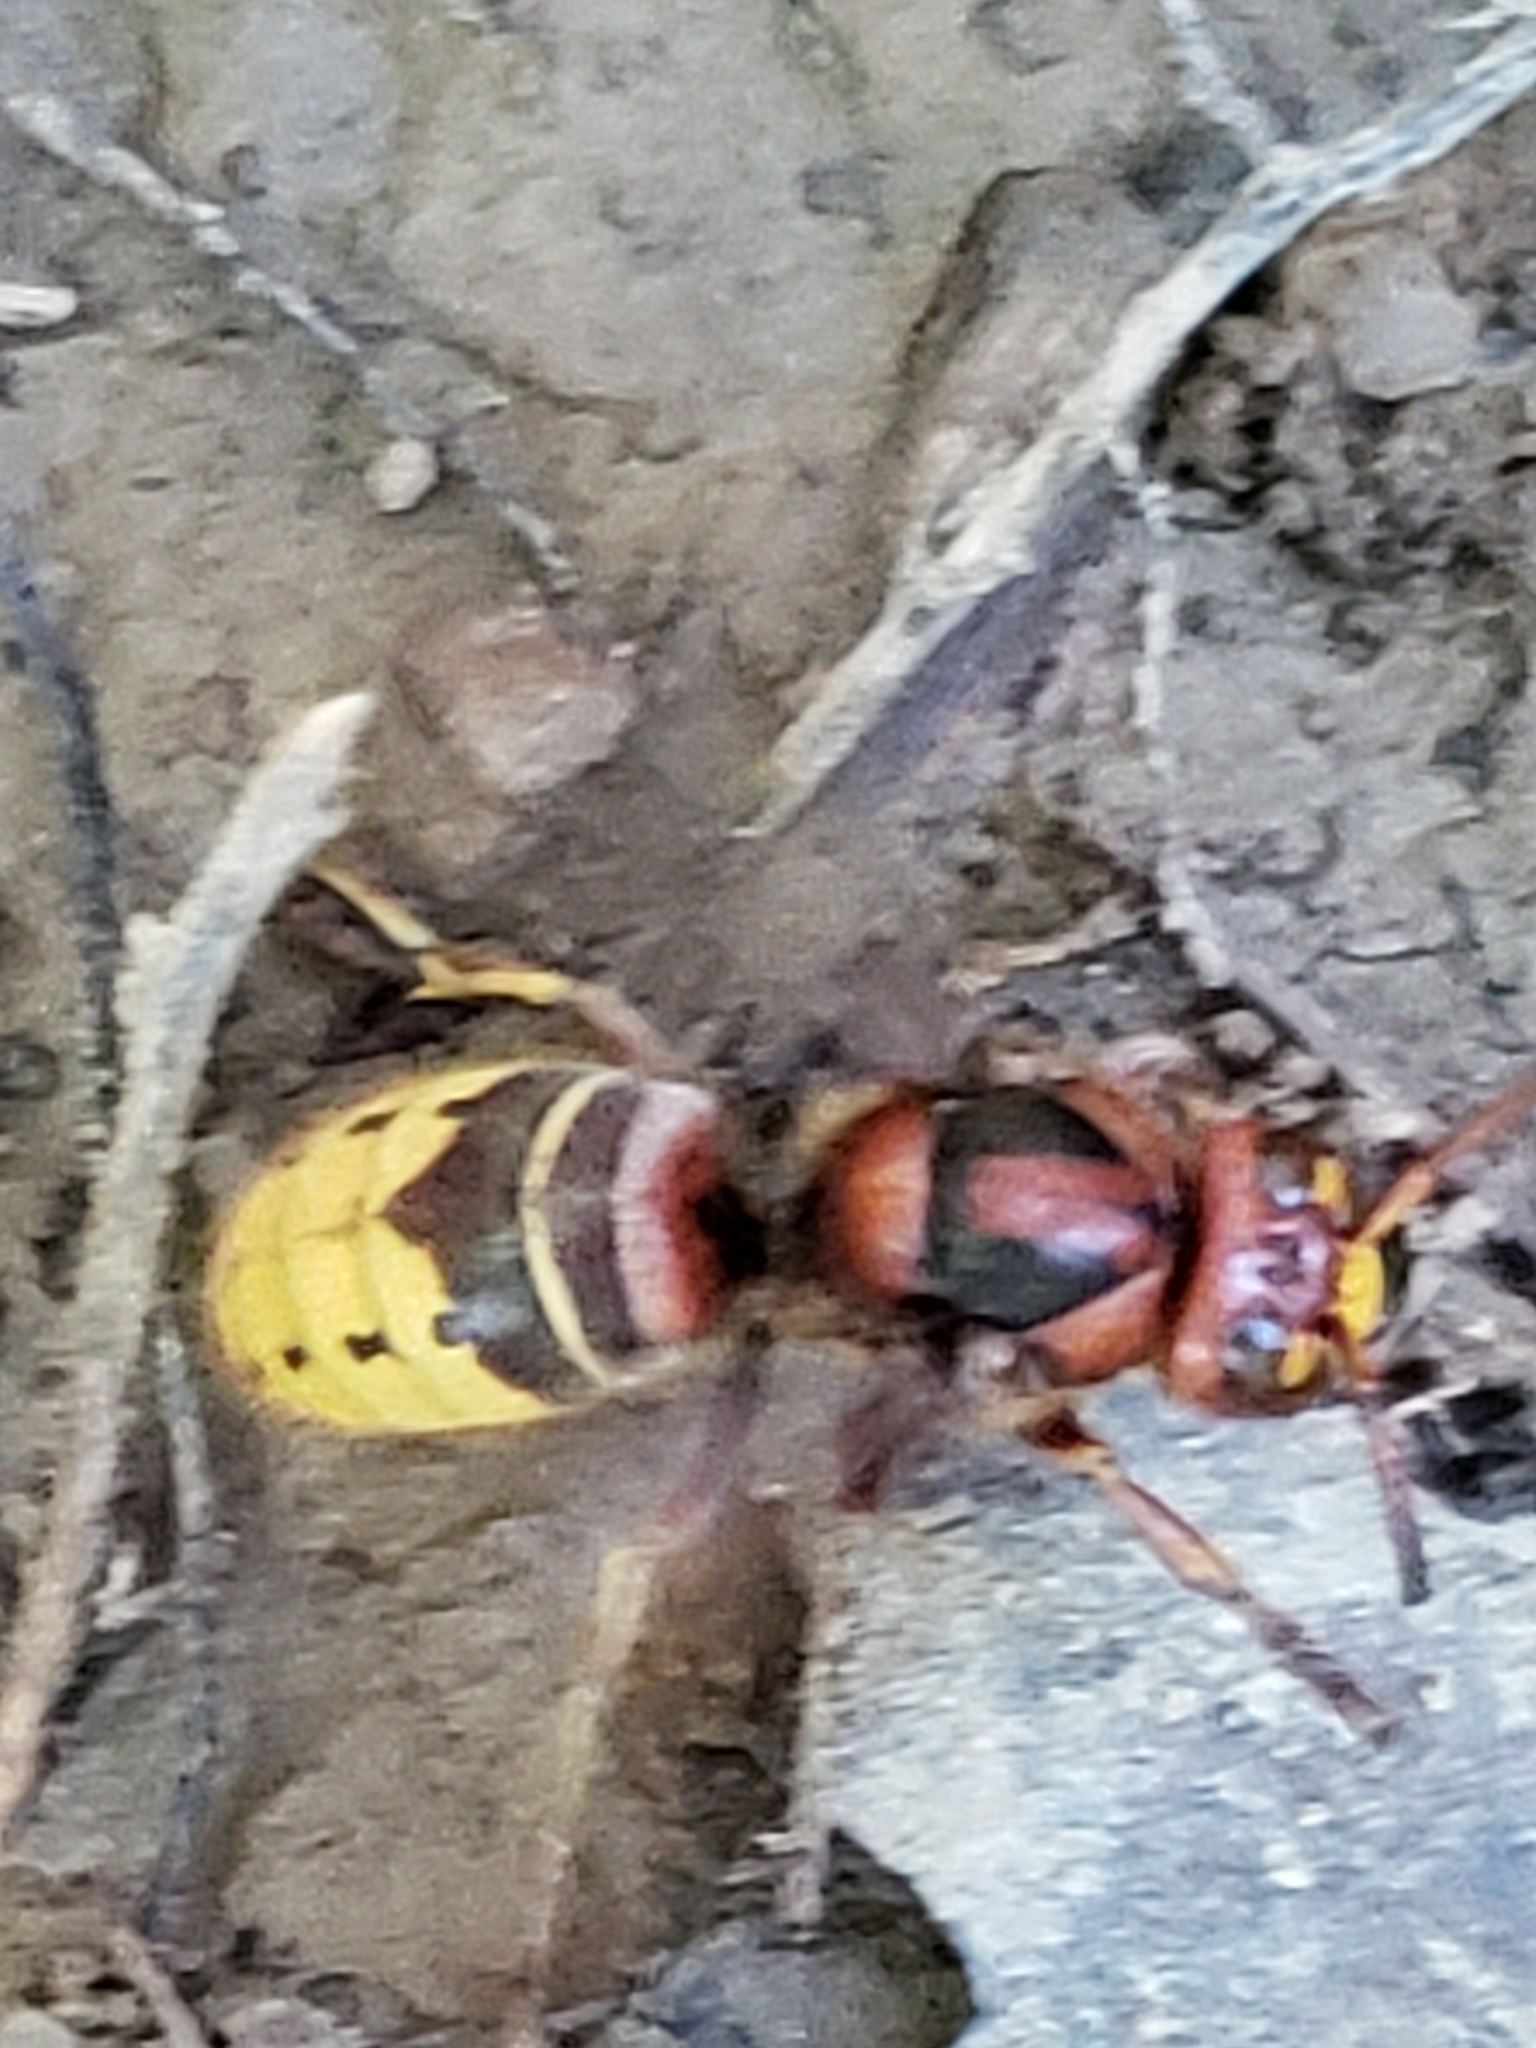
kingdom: Animalia
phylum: Arthropoda
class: Insecta
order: Hymenoptera
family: Vespidae
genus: Vespa
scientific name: Vespa crabro
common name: Hornet
